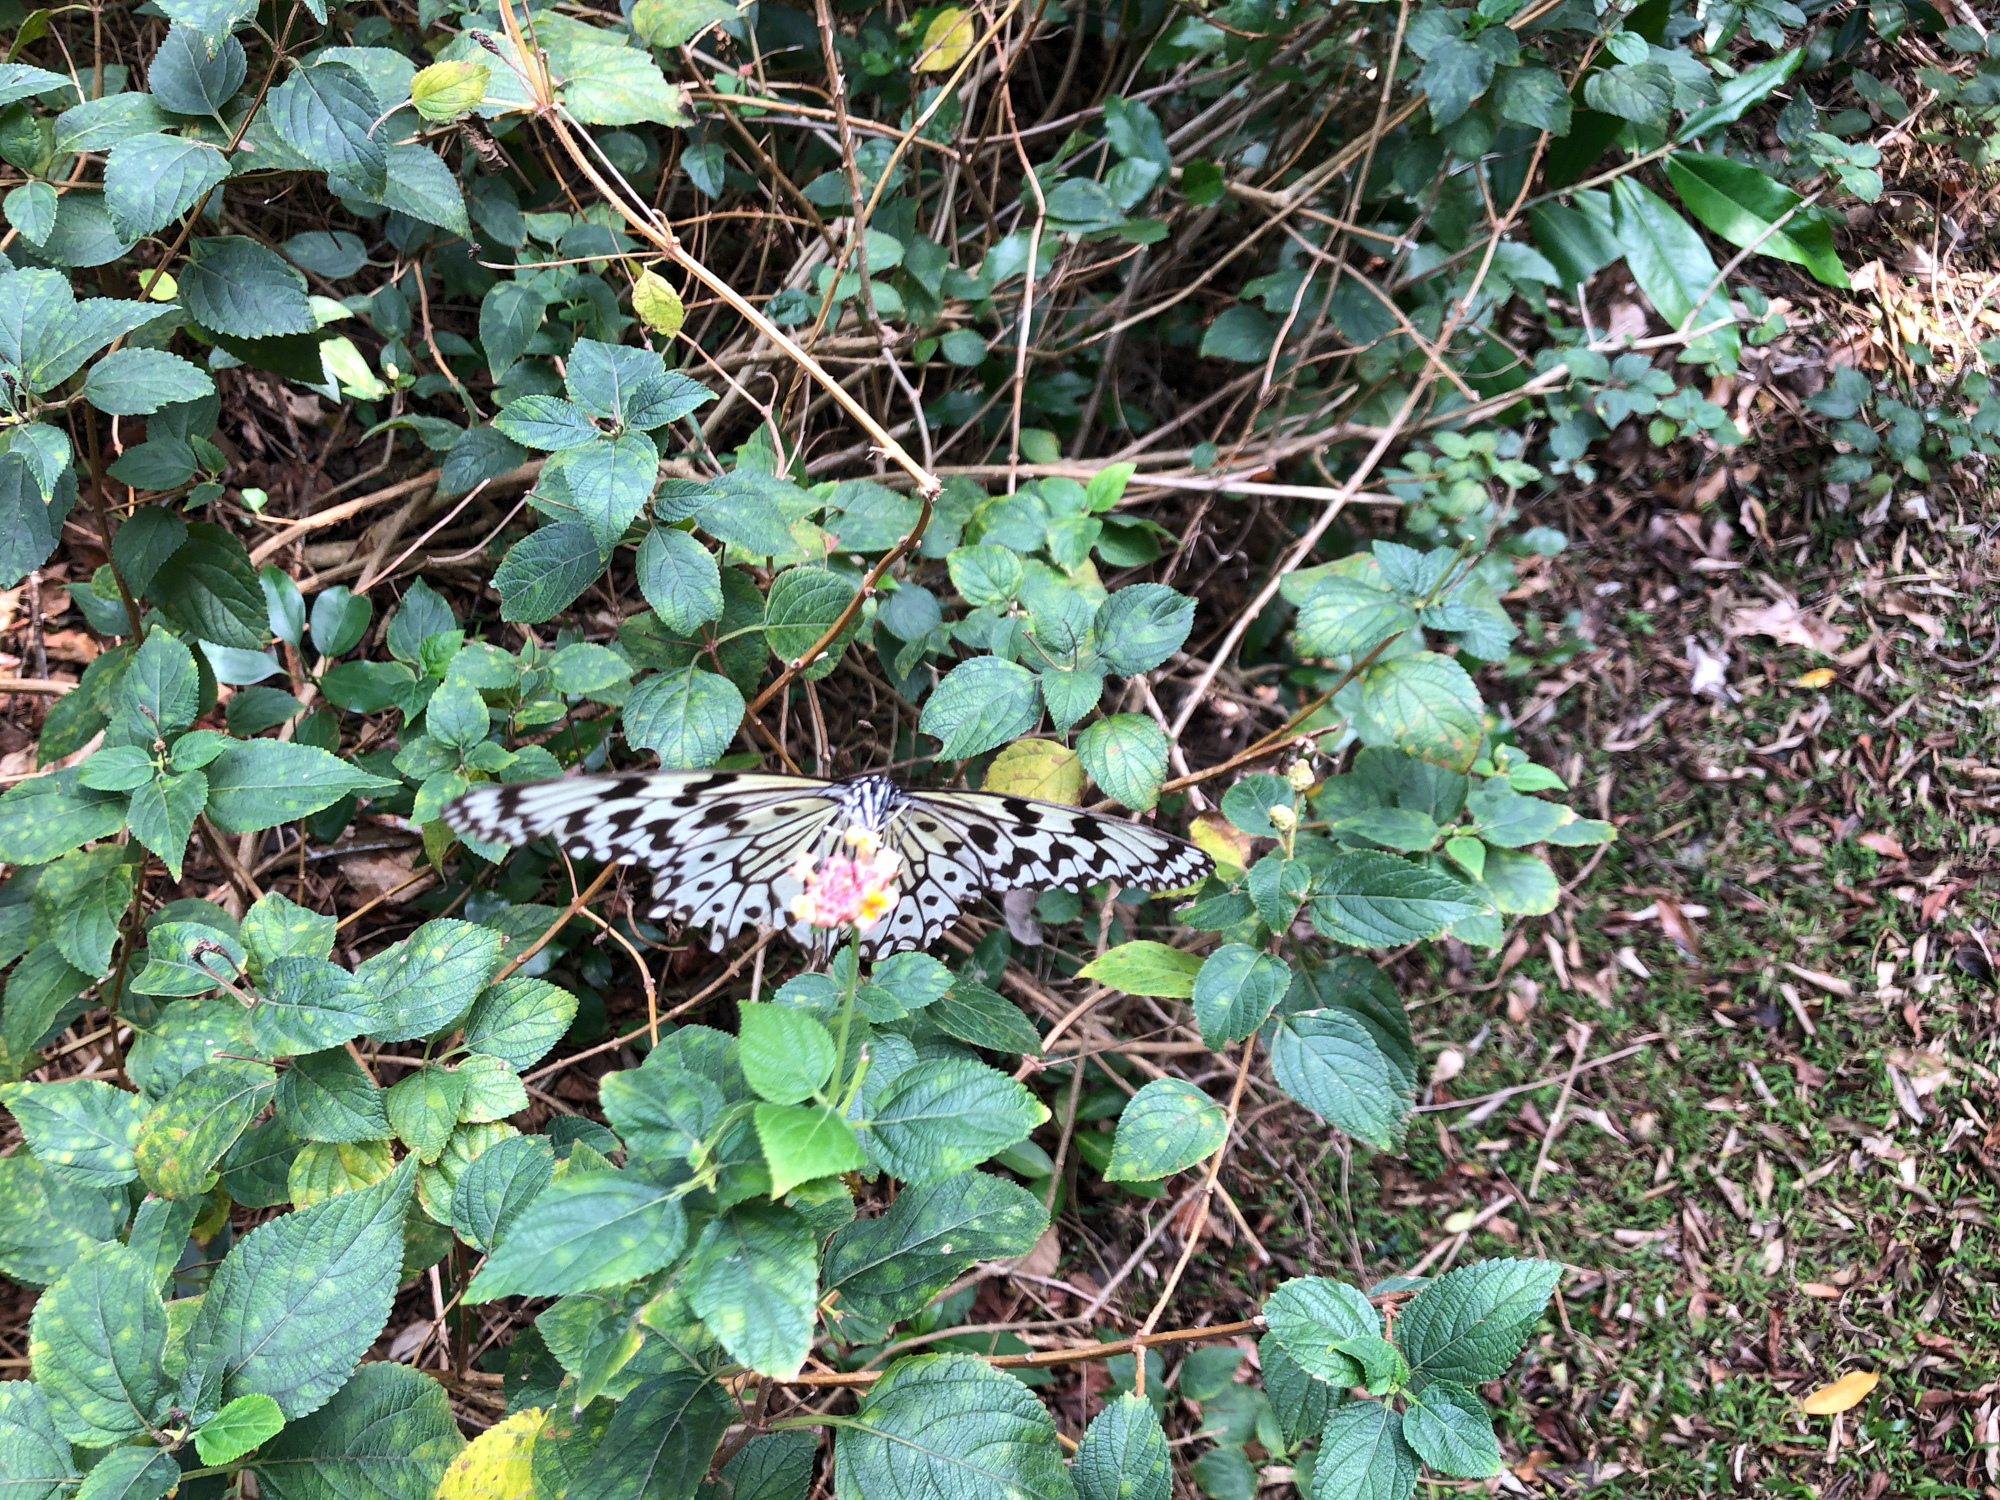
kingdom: Animalia
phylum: Arthropoda
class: Insecta
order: Lepidoptera
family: Nymphalidae
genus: Idea
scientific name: Idea leuconoe
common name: Rice paper butterfly
